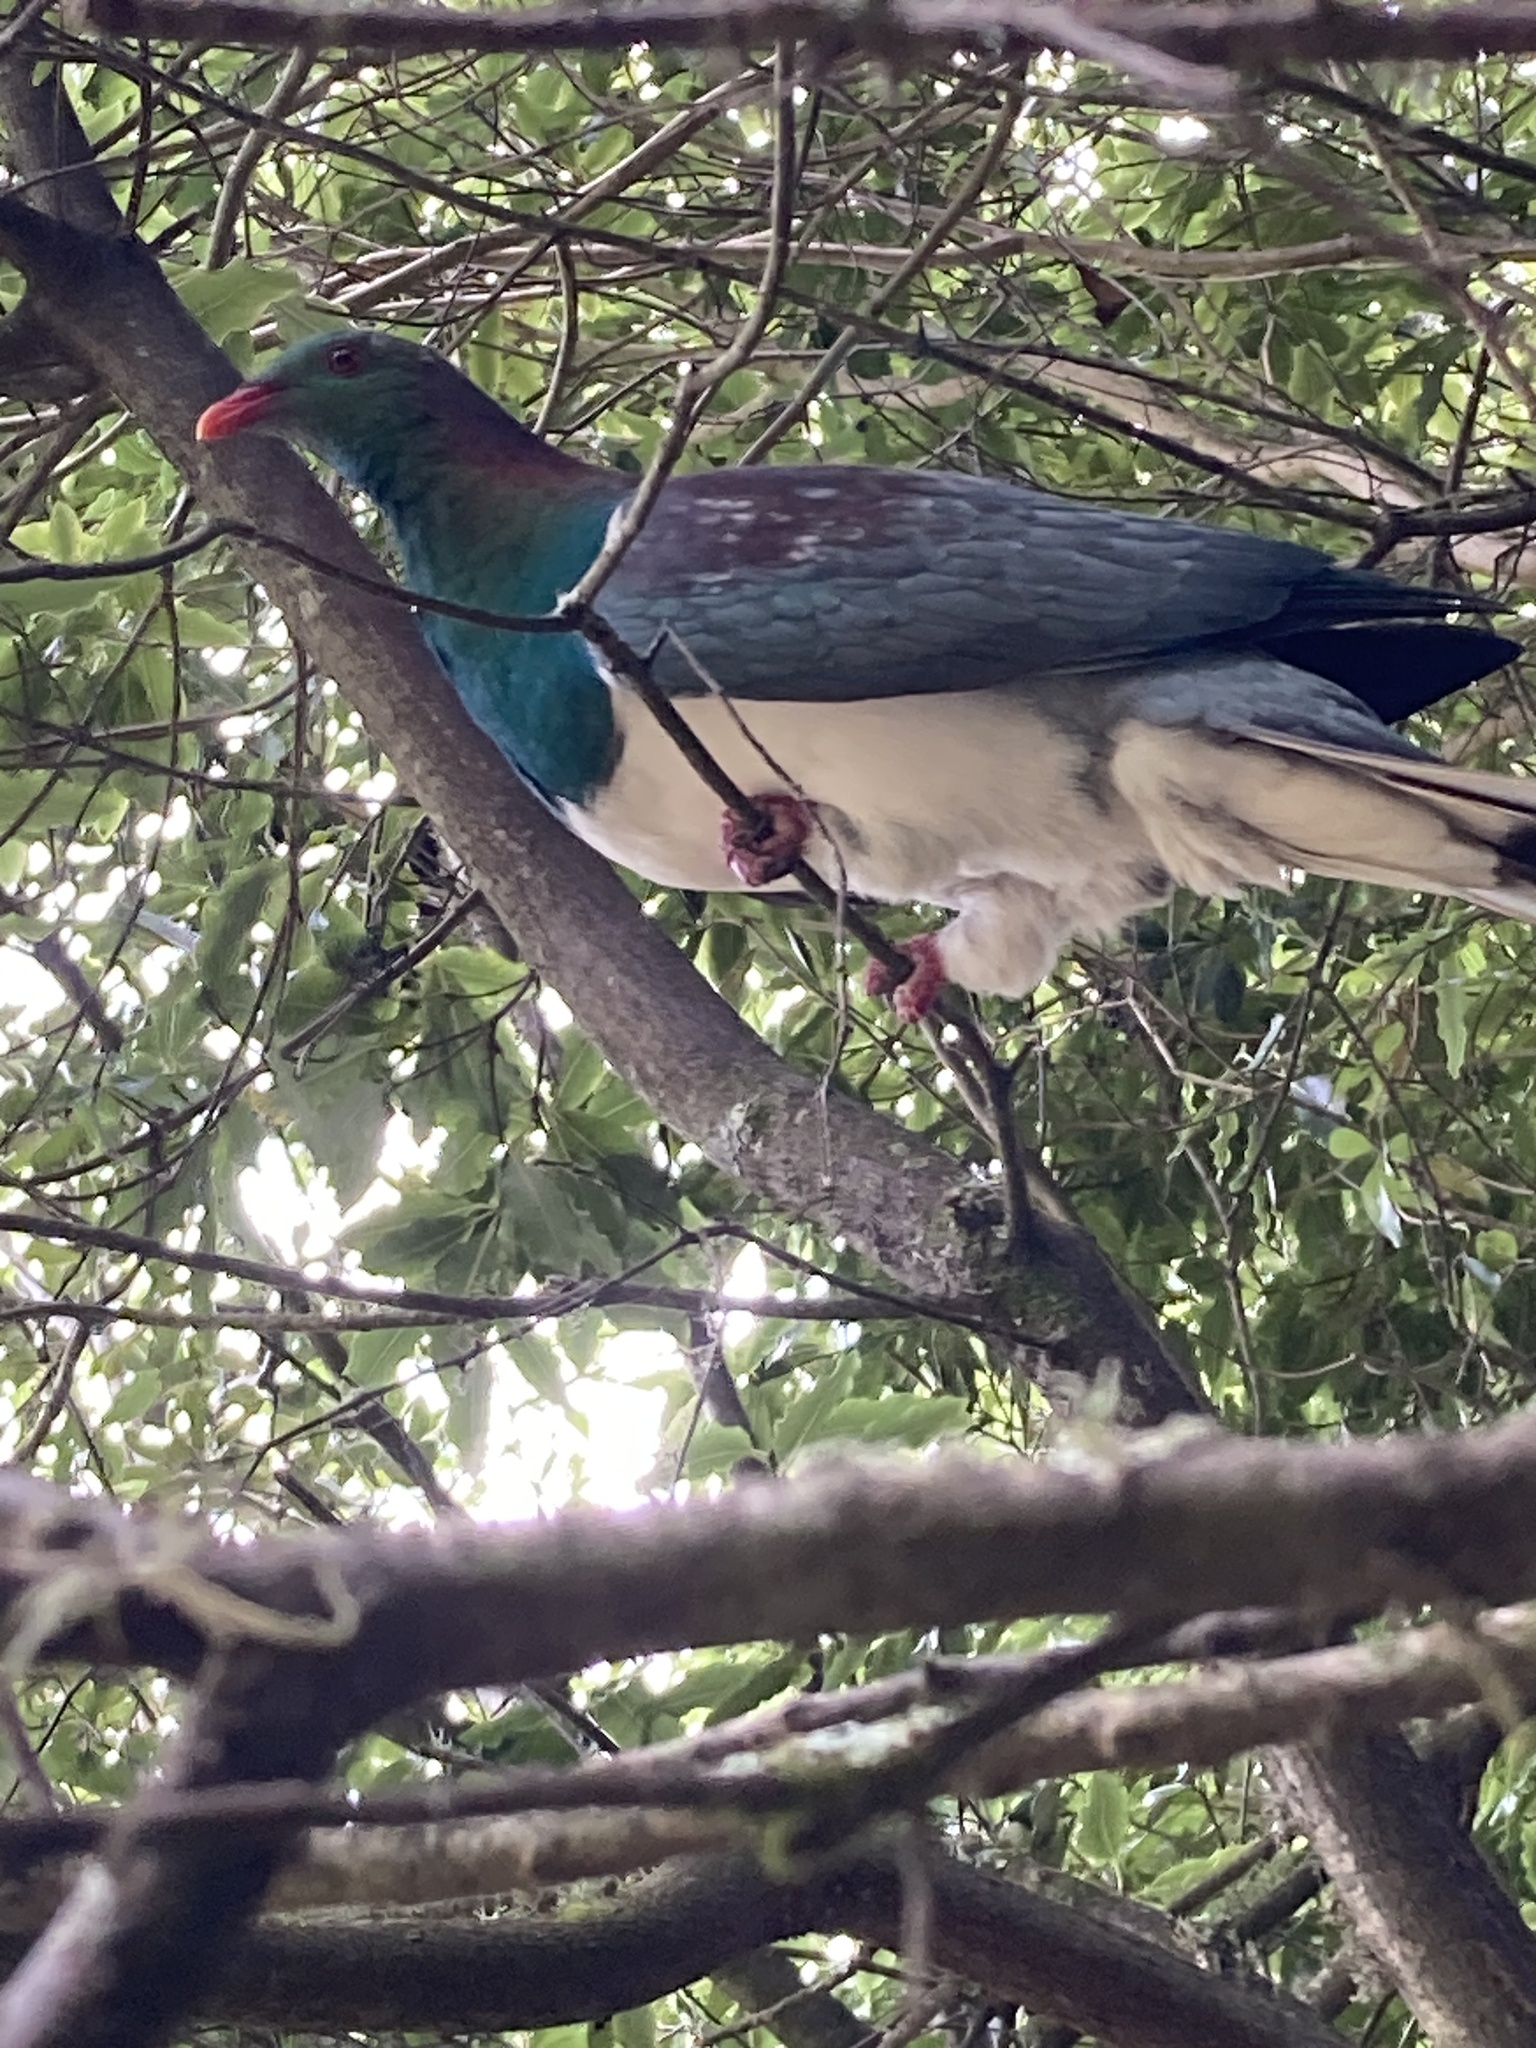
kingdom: Animalia
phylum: Chordata
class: Aves
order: Columbiformes
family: Columbidae
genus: Hemiphaga
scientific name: Hemiphaga novaeseelandiae
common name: New zealand pigeon
